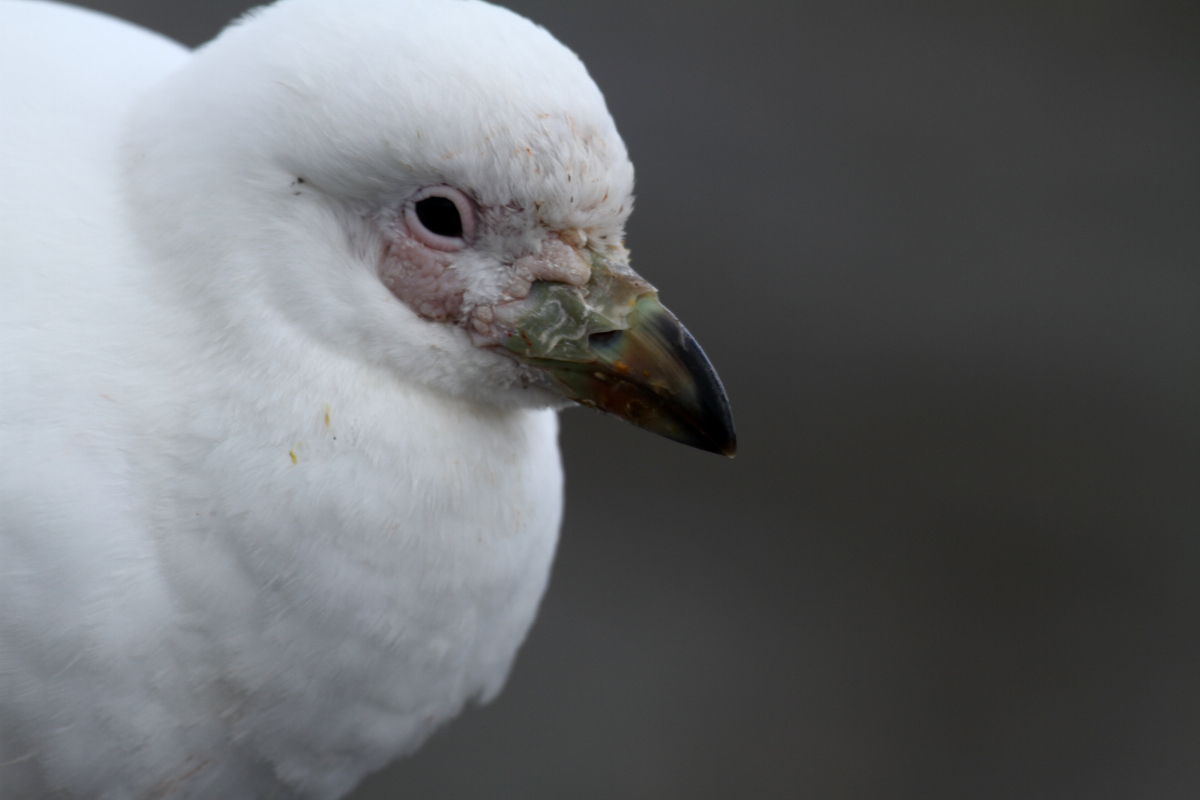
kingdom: Animalia
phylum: Chordata
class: Aves
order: Charadriiformes
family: Chionidae
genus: Chionis
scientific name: Chionis albus
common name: Snowy sheathbill
